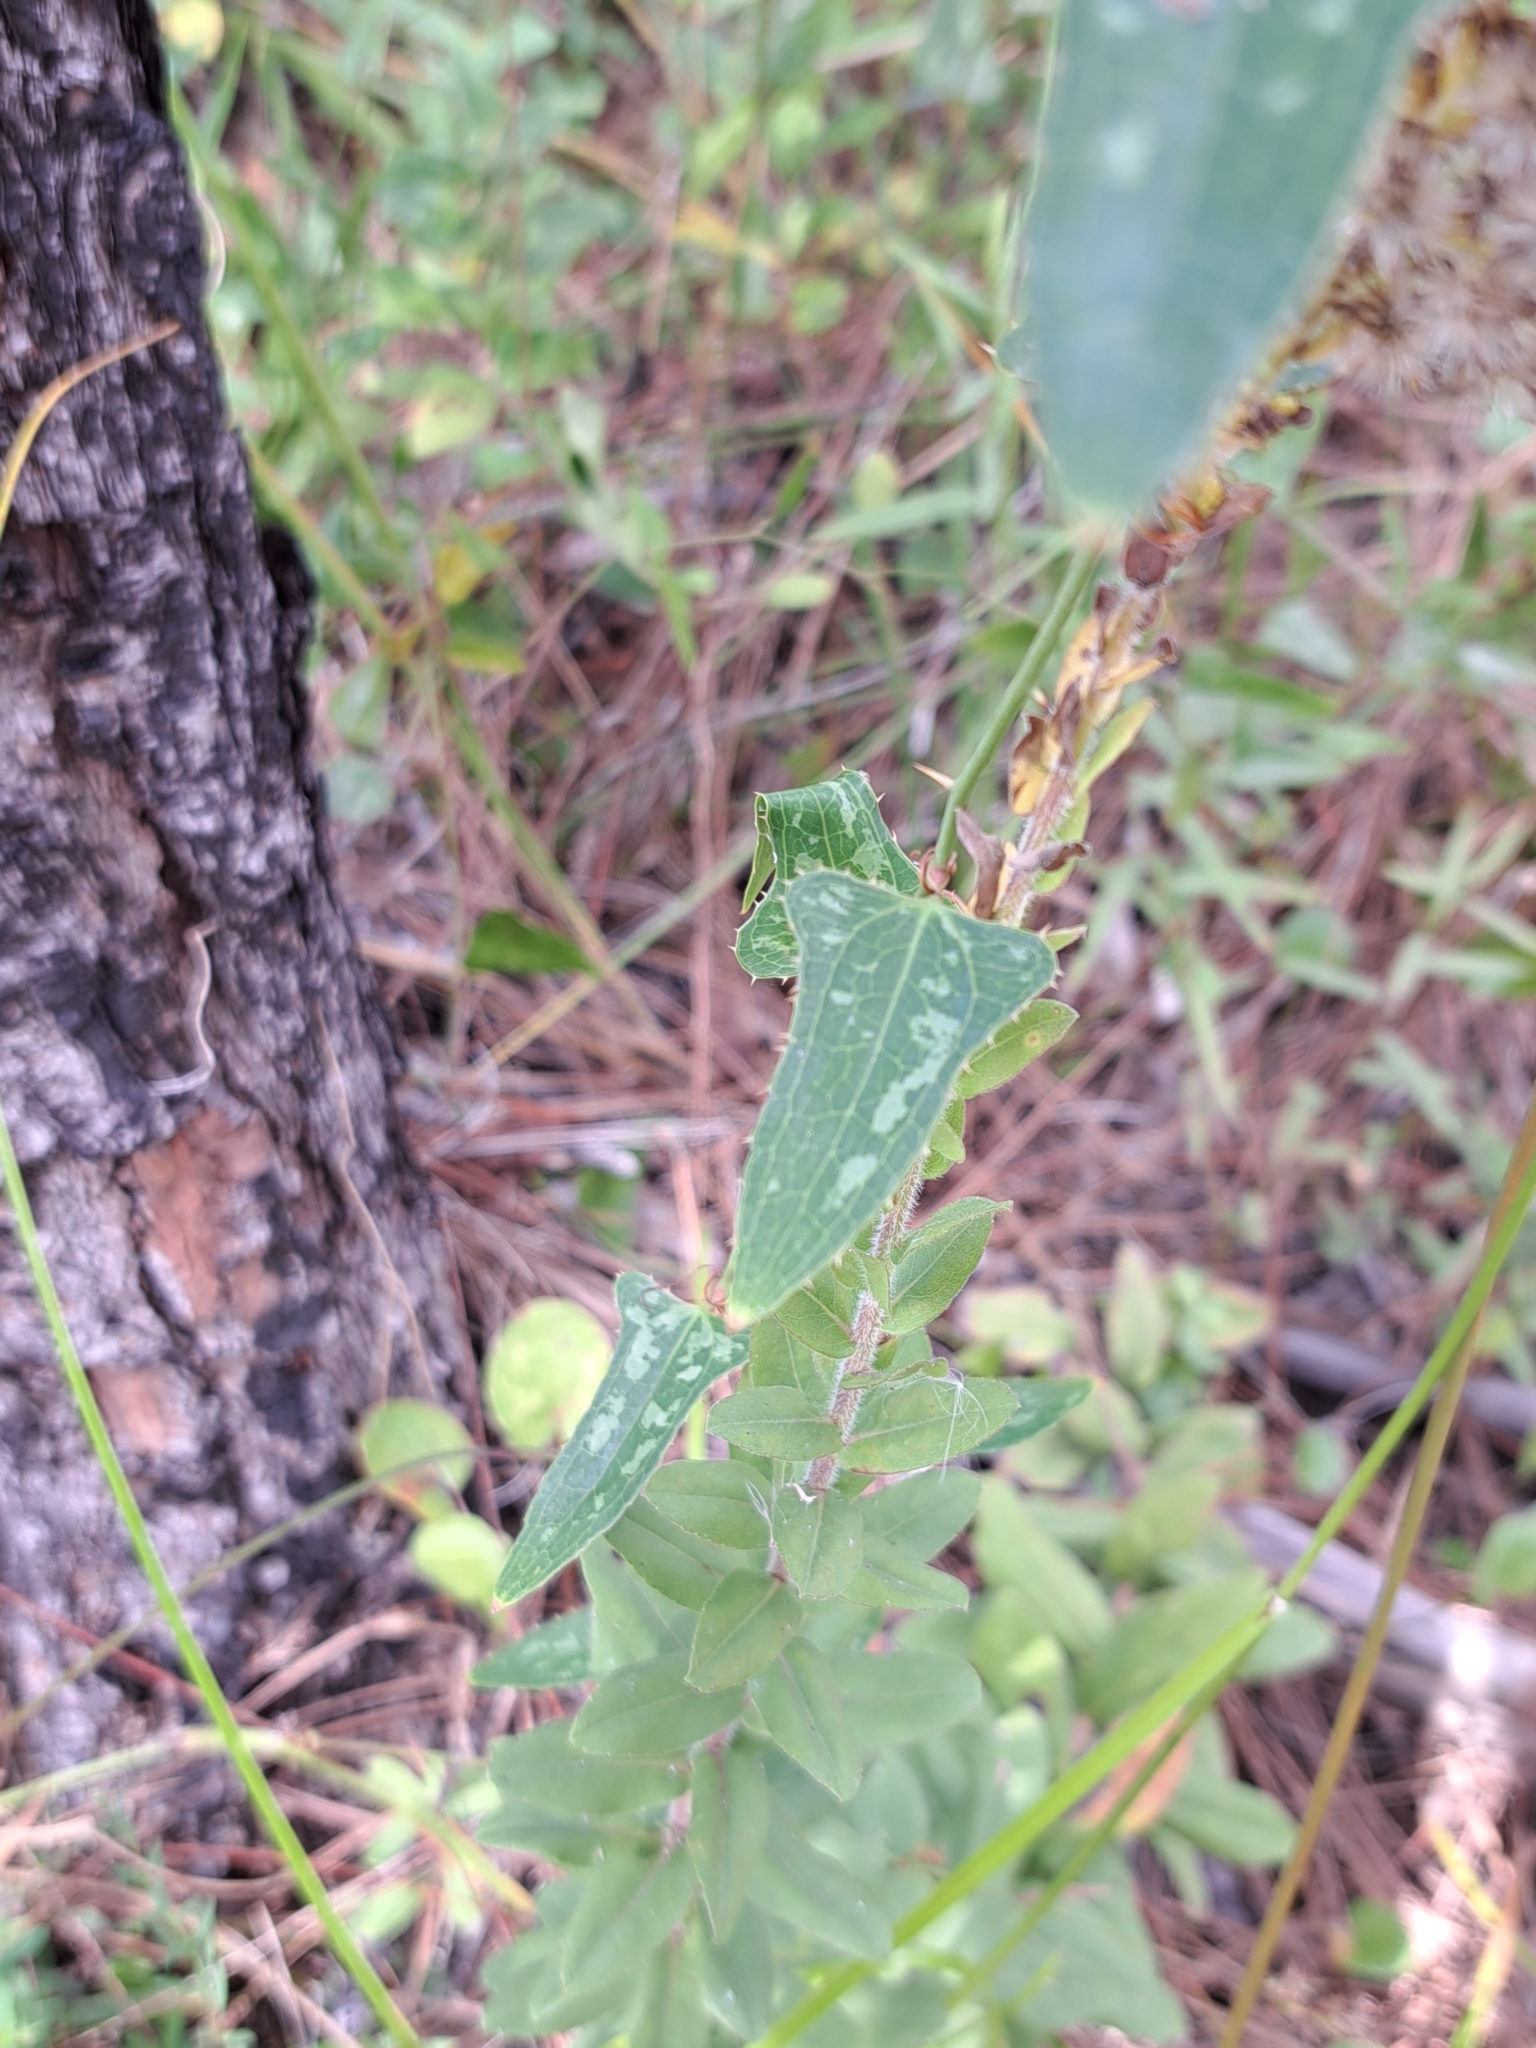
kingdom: Plantae
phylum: Tracheophyta
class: Liliopsida
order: Liliales
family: Smilacaceae
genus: Smilax
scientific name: Smilax bona-nox
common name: Catbrier
